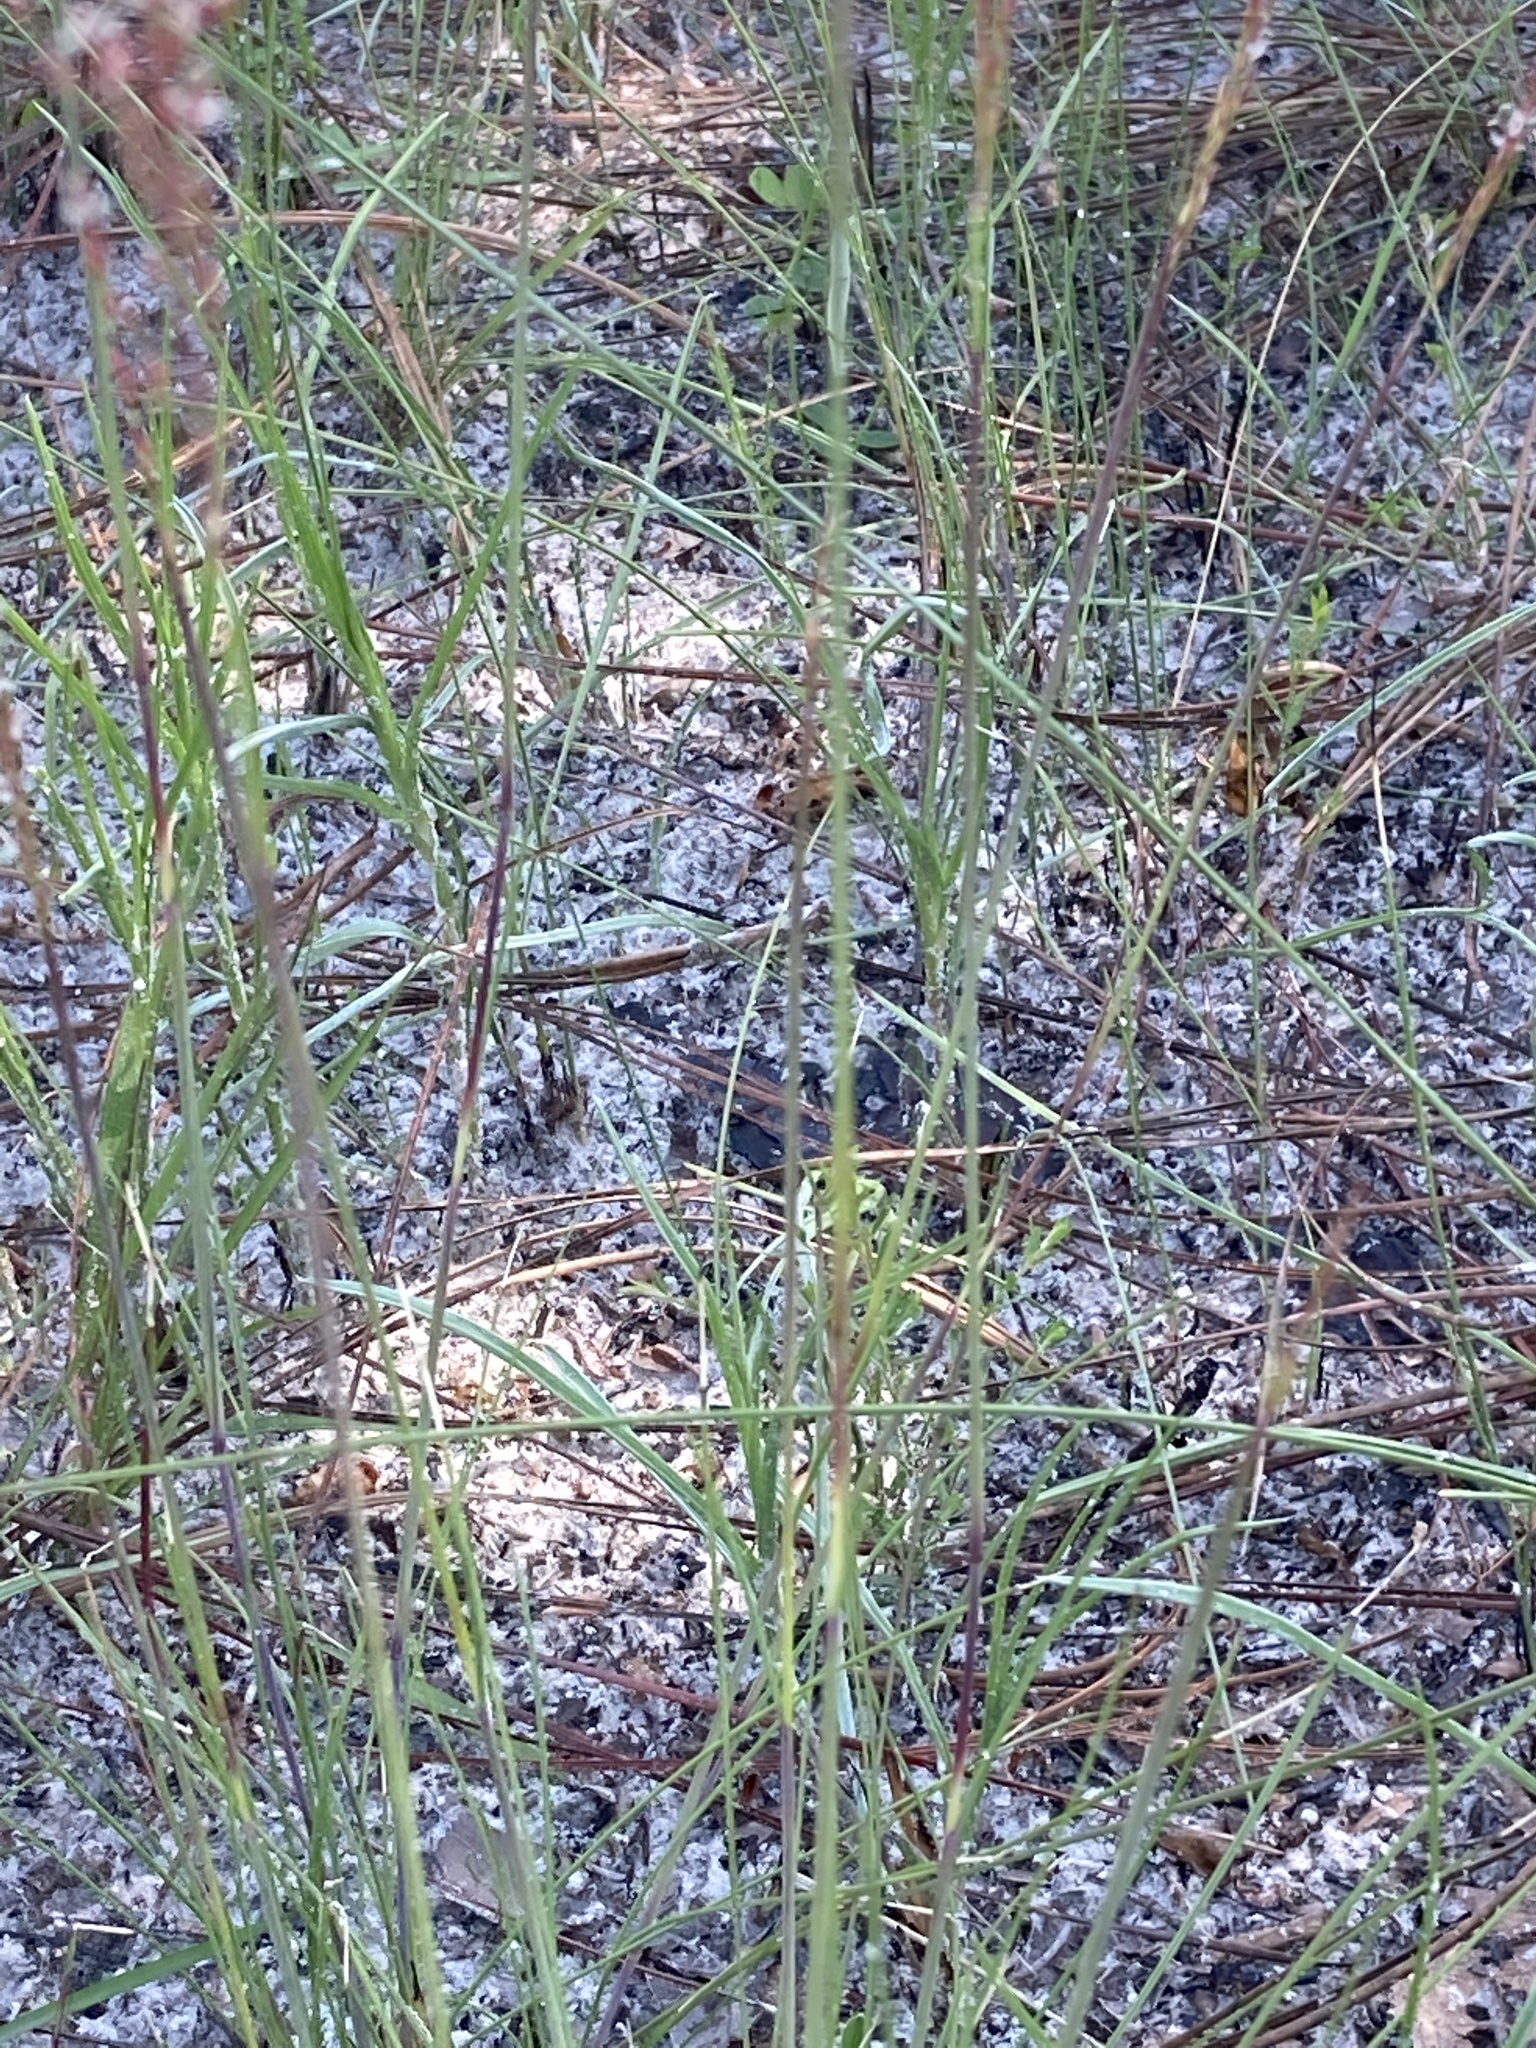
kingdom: Plantae
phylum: Tracheophyta
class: Liliopsida
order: Poales
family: Poaceae
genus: Sporobolus
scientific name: Sporobolus junceus
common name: Lizard grass
